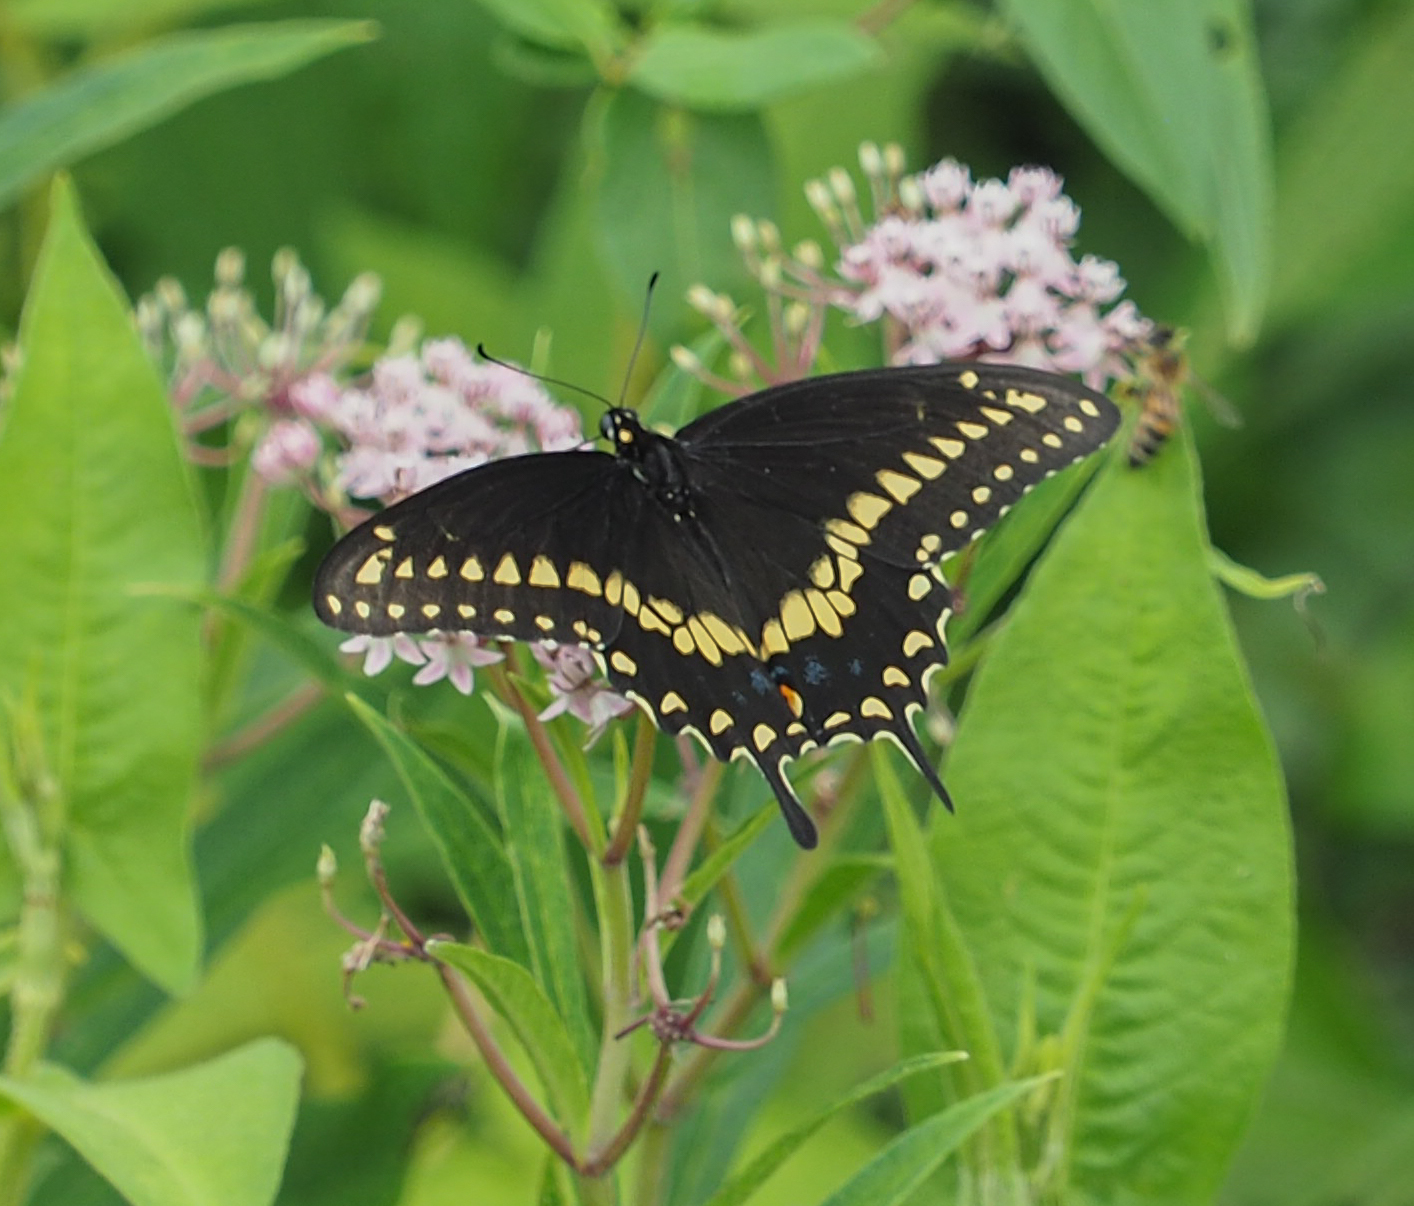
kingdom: Animalia
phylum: Arthropoda
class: Insecta
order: Lepidoptera
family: Papilionidae
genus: Papilio
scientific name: Papilio polyxenes
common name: Black swallowtail
